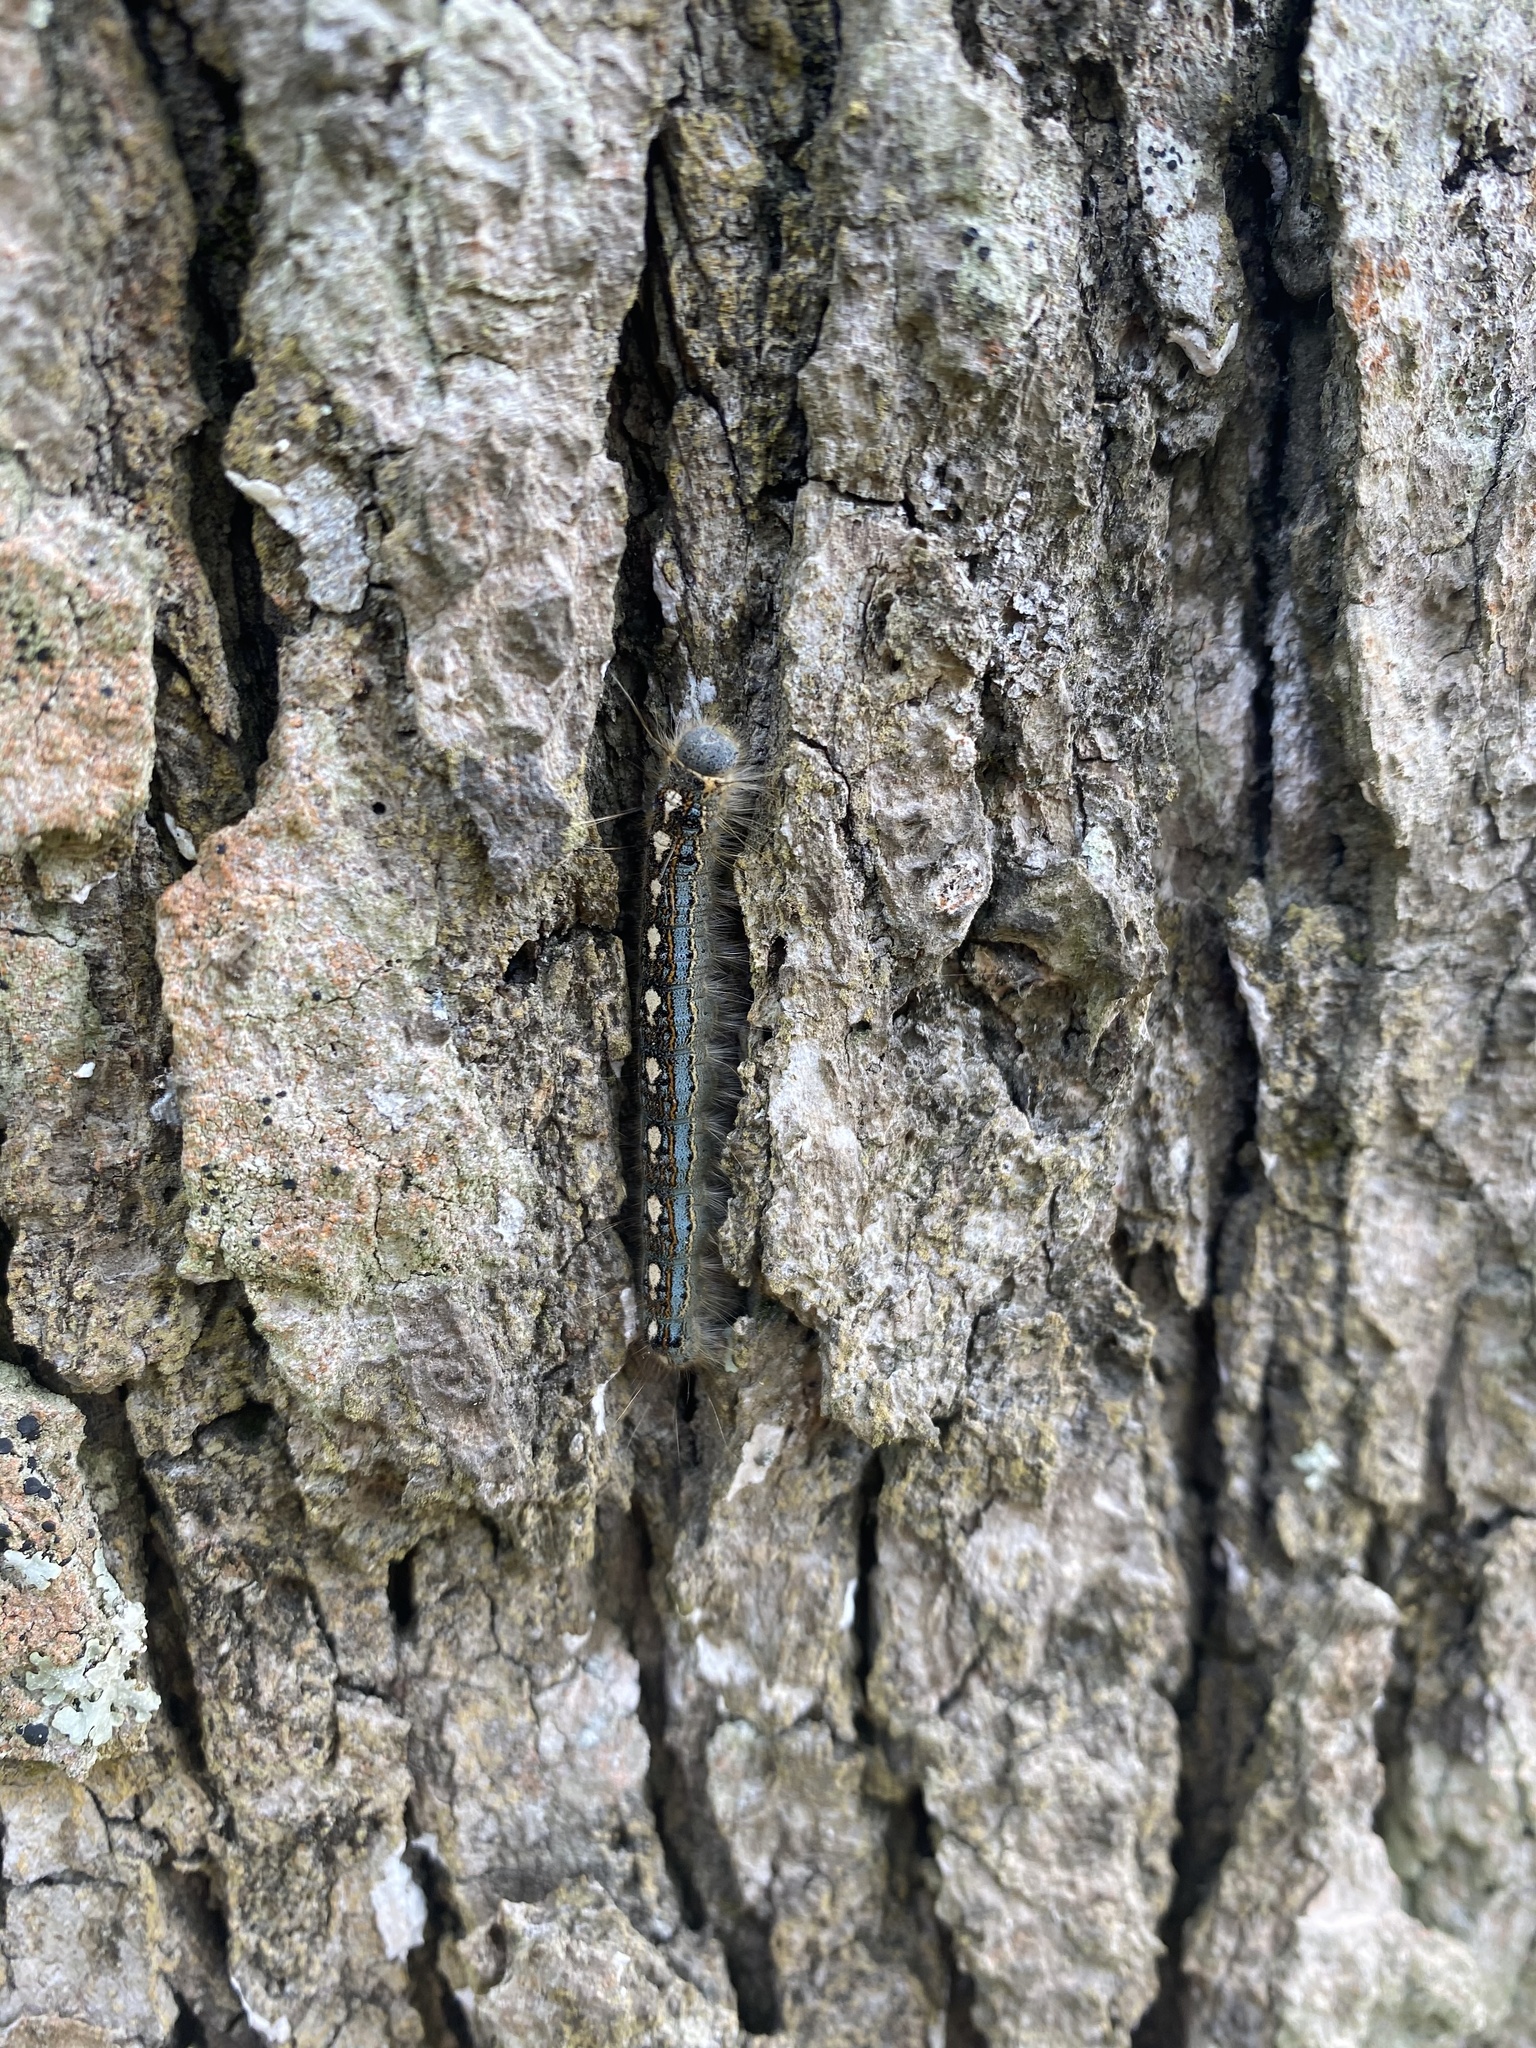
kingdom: Animalia
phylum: Arthropoda
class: Insecta
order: Lepidoptera
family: Lasiocampidae
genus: Malacosoma
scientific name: Malacosoma disstria
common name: Forest tent caterpillar
